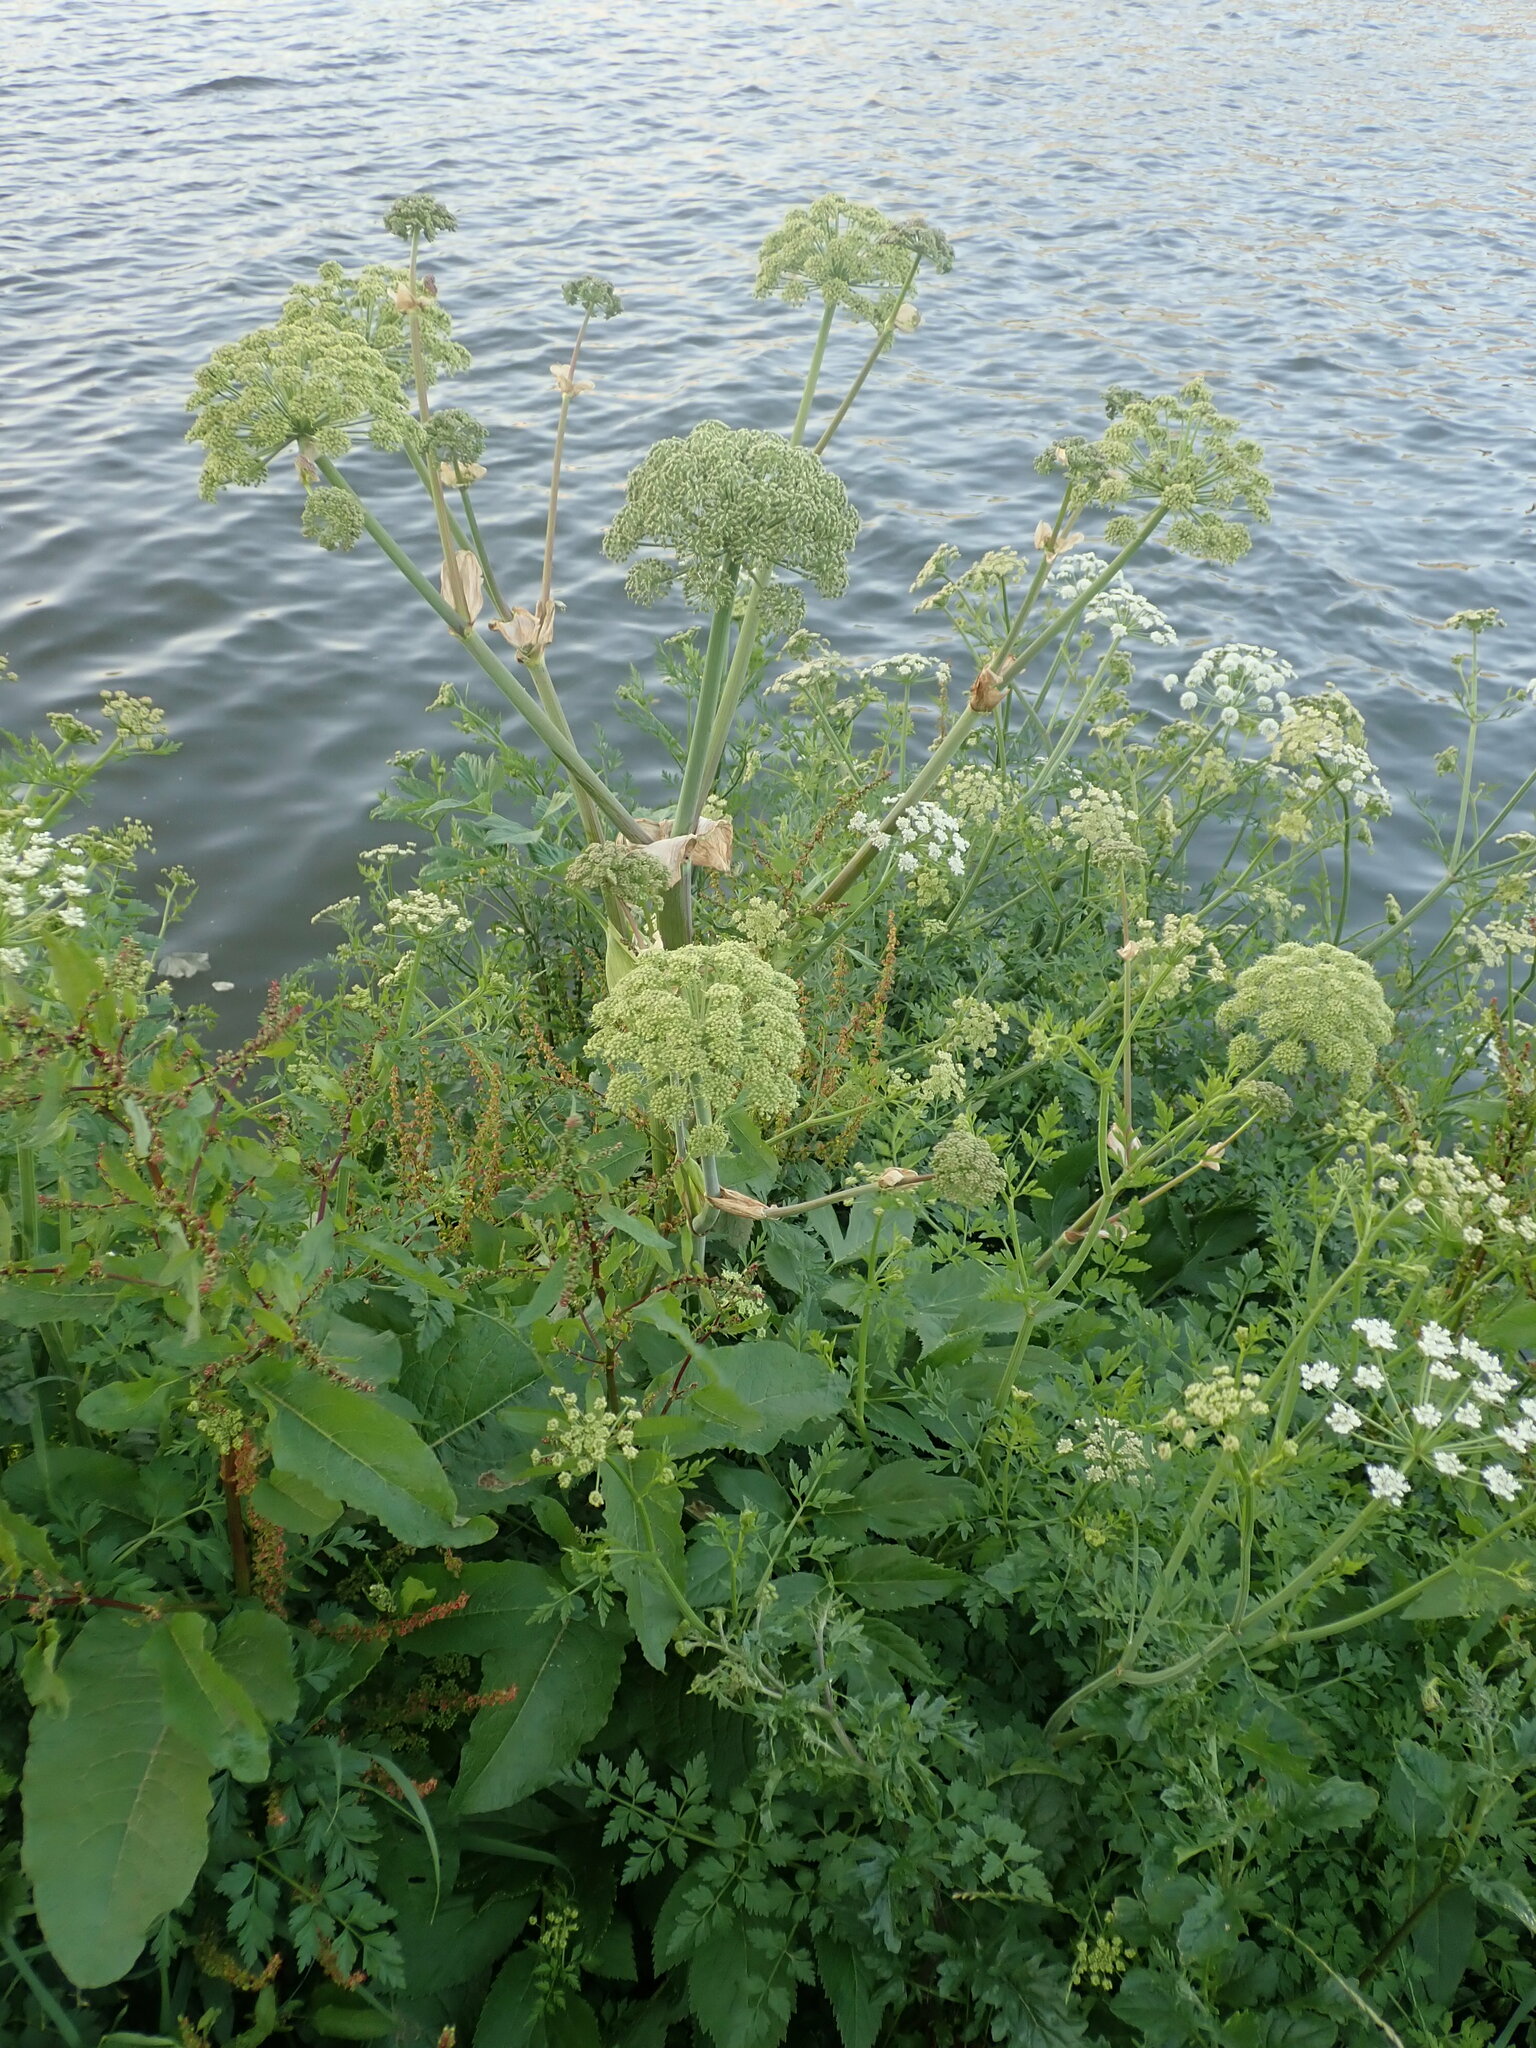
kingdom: Plantae
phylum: Tracheophyta
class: Magnoliopsida
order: Apiales
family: Apiaceae
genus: Angelica
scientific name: Angelica archangelica
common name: Garden angelica
